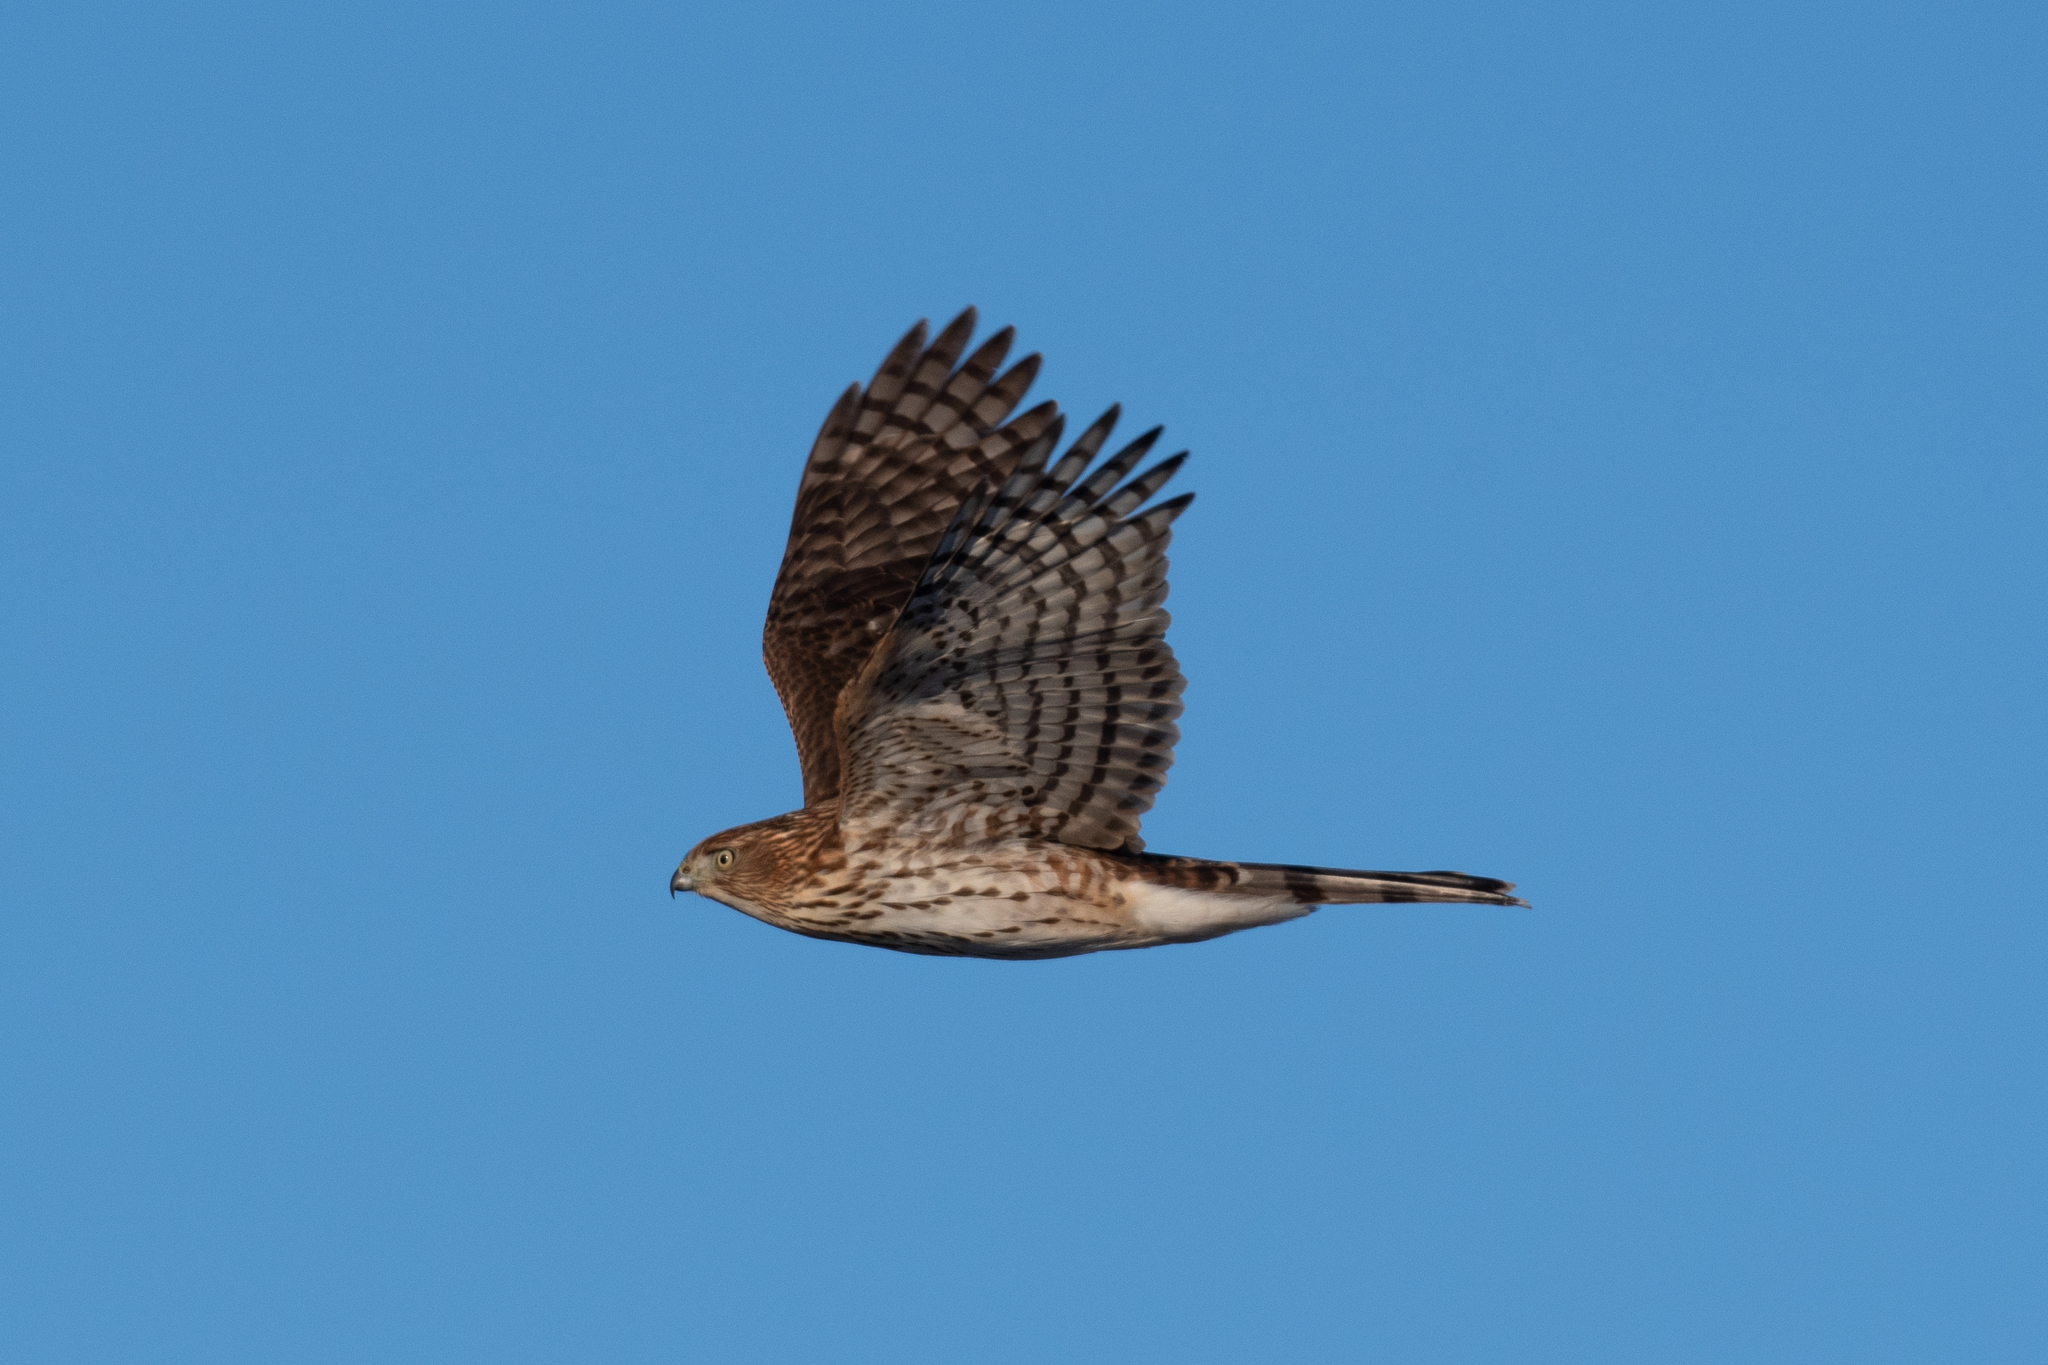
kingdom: Animalia
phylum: Chordata
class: Aves
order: Accipitriformes
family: Accipitridae
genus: Accipiter
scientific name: Accipiter cooperii
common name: Cooper's hawk
